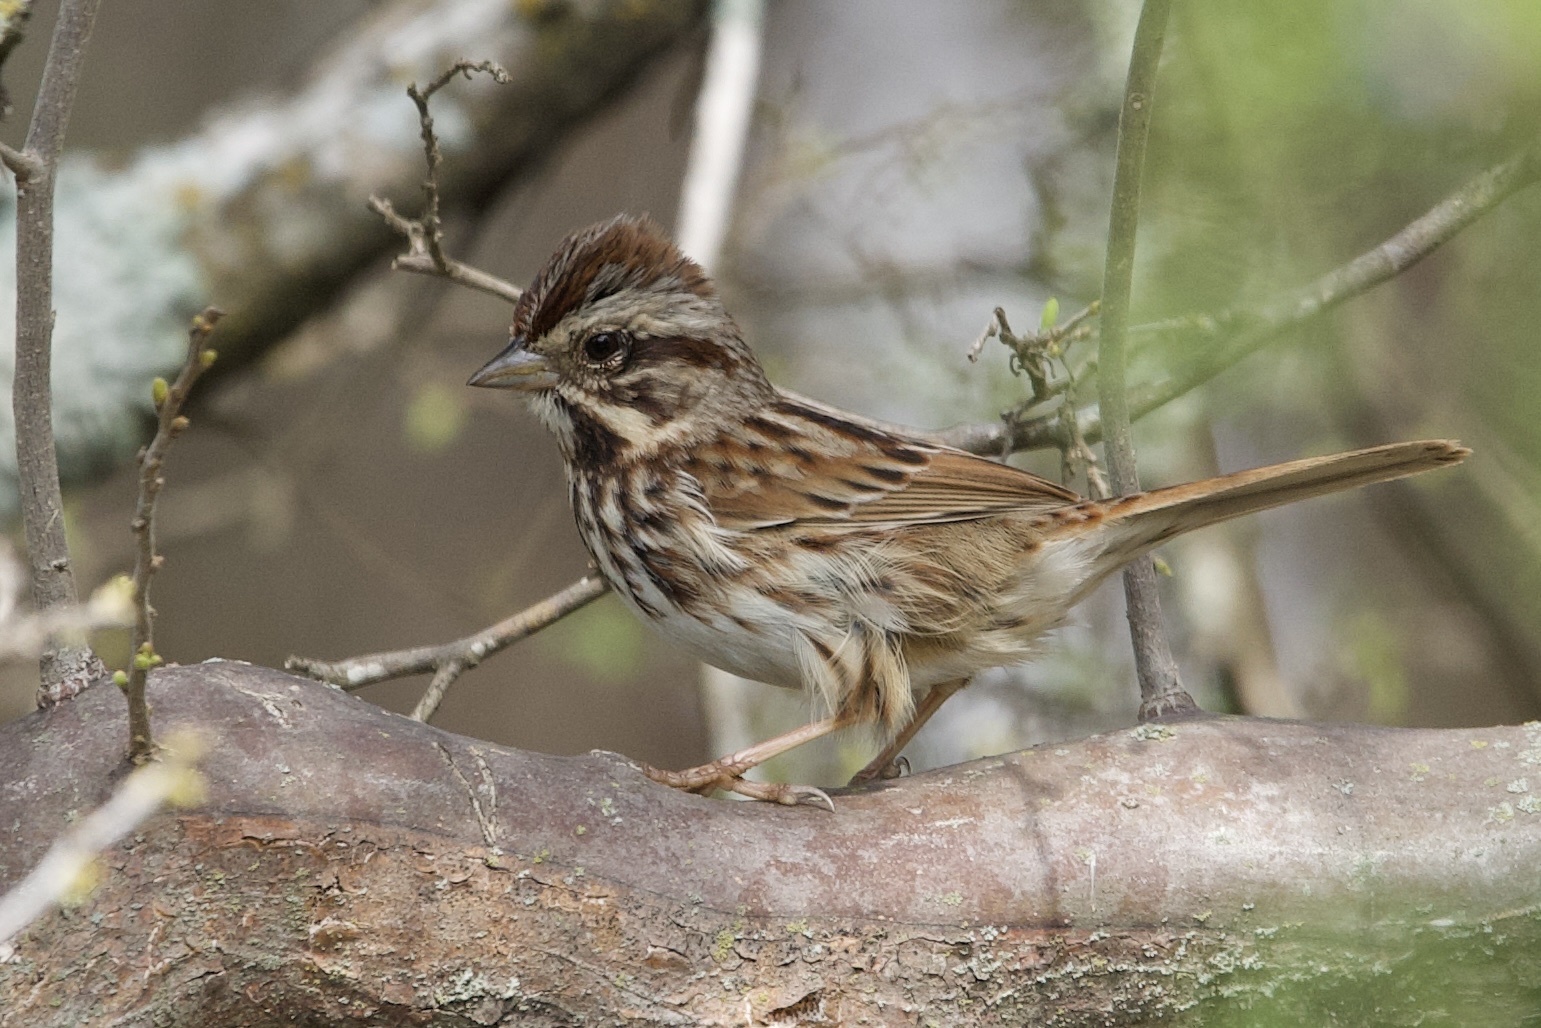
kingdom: Animalia
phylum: Chordata
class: Aves
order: Passeriformes
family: Passerellidae
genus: Melospiza
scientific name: Melospiza melodia
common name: Song sparrow
